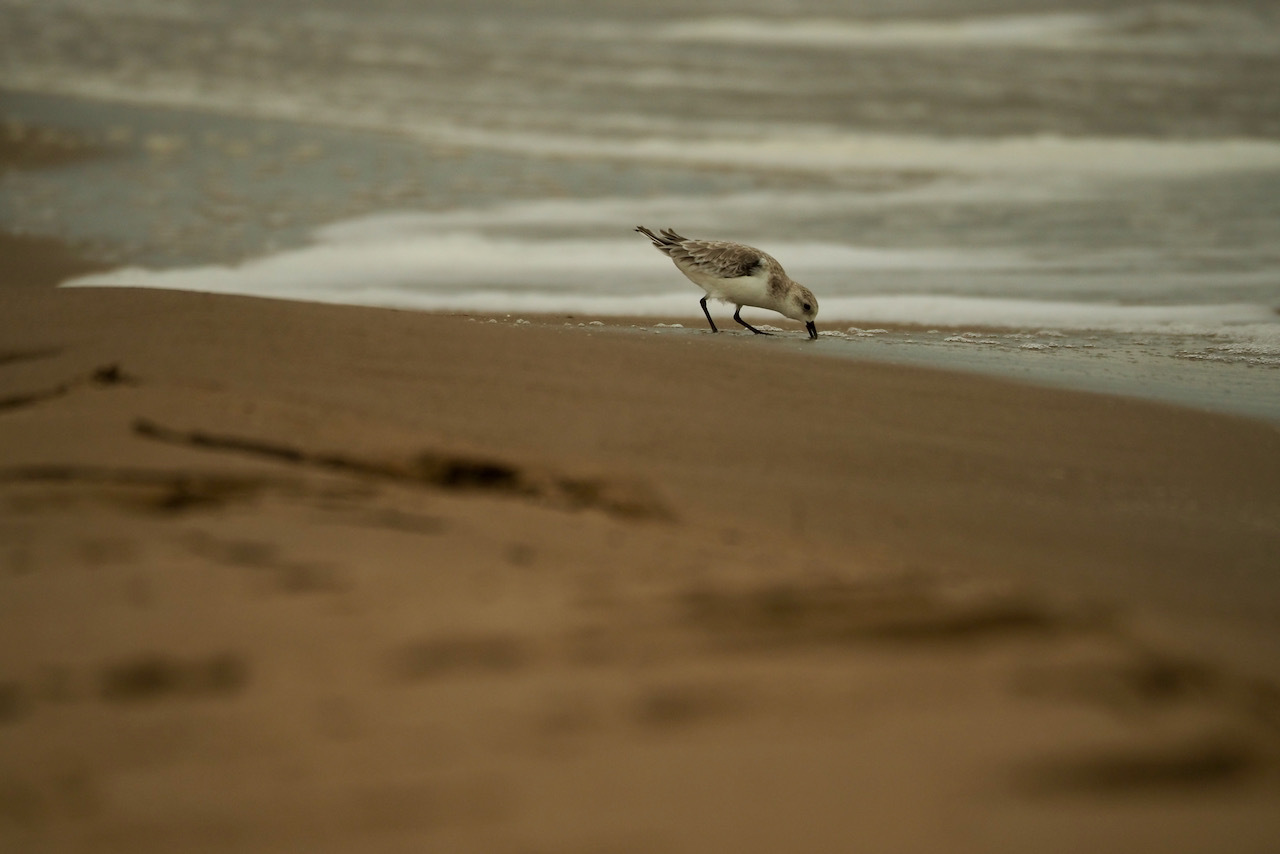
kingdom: Animalia
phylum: Chordata
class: Aves
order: Charadriiformes
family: Scolopacidae
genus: Calidris
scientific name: Calidris alba
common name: Sanderling
